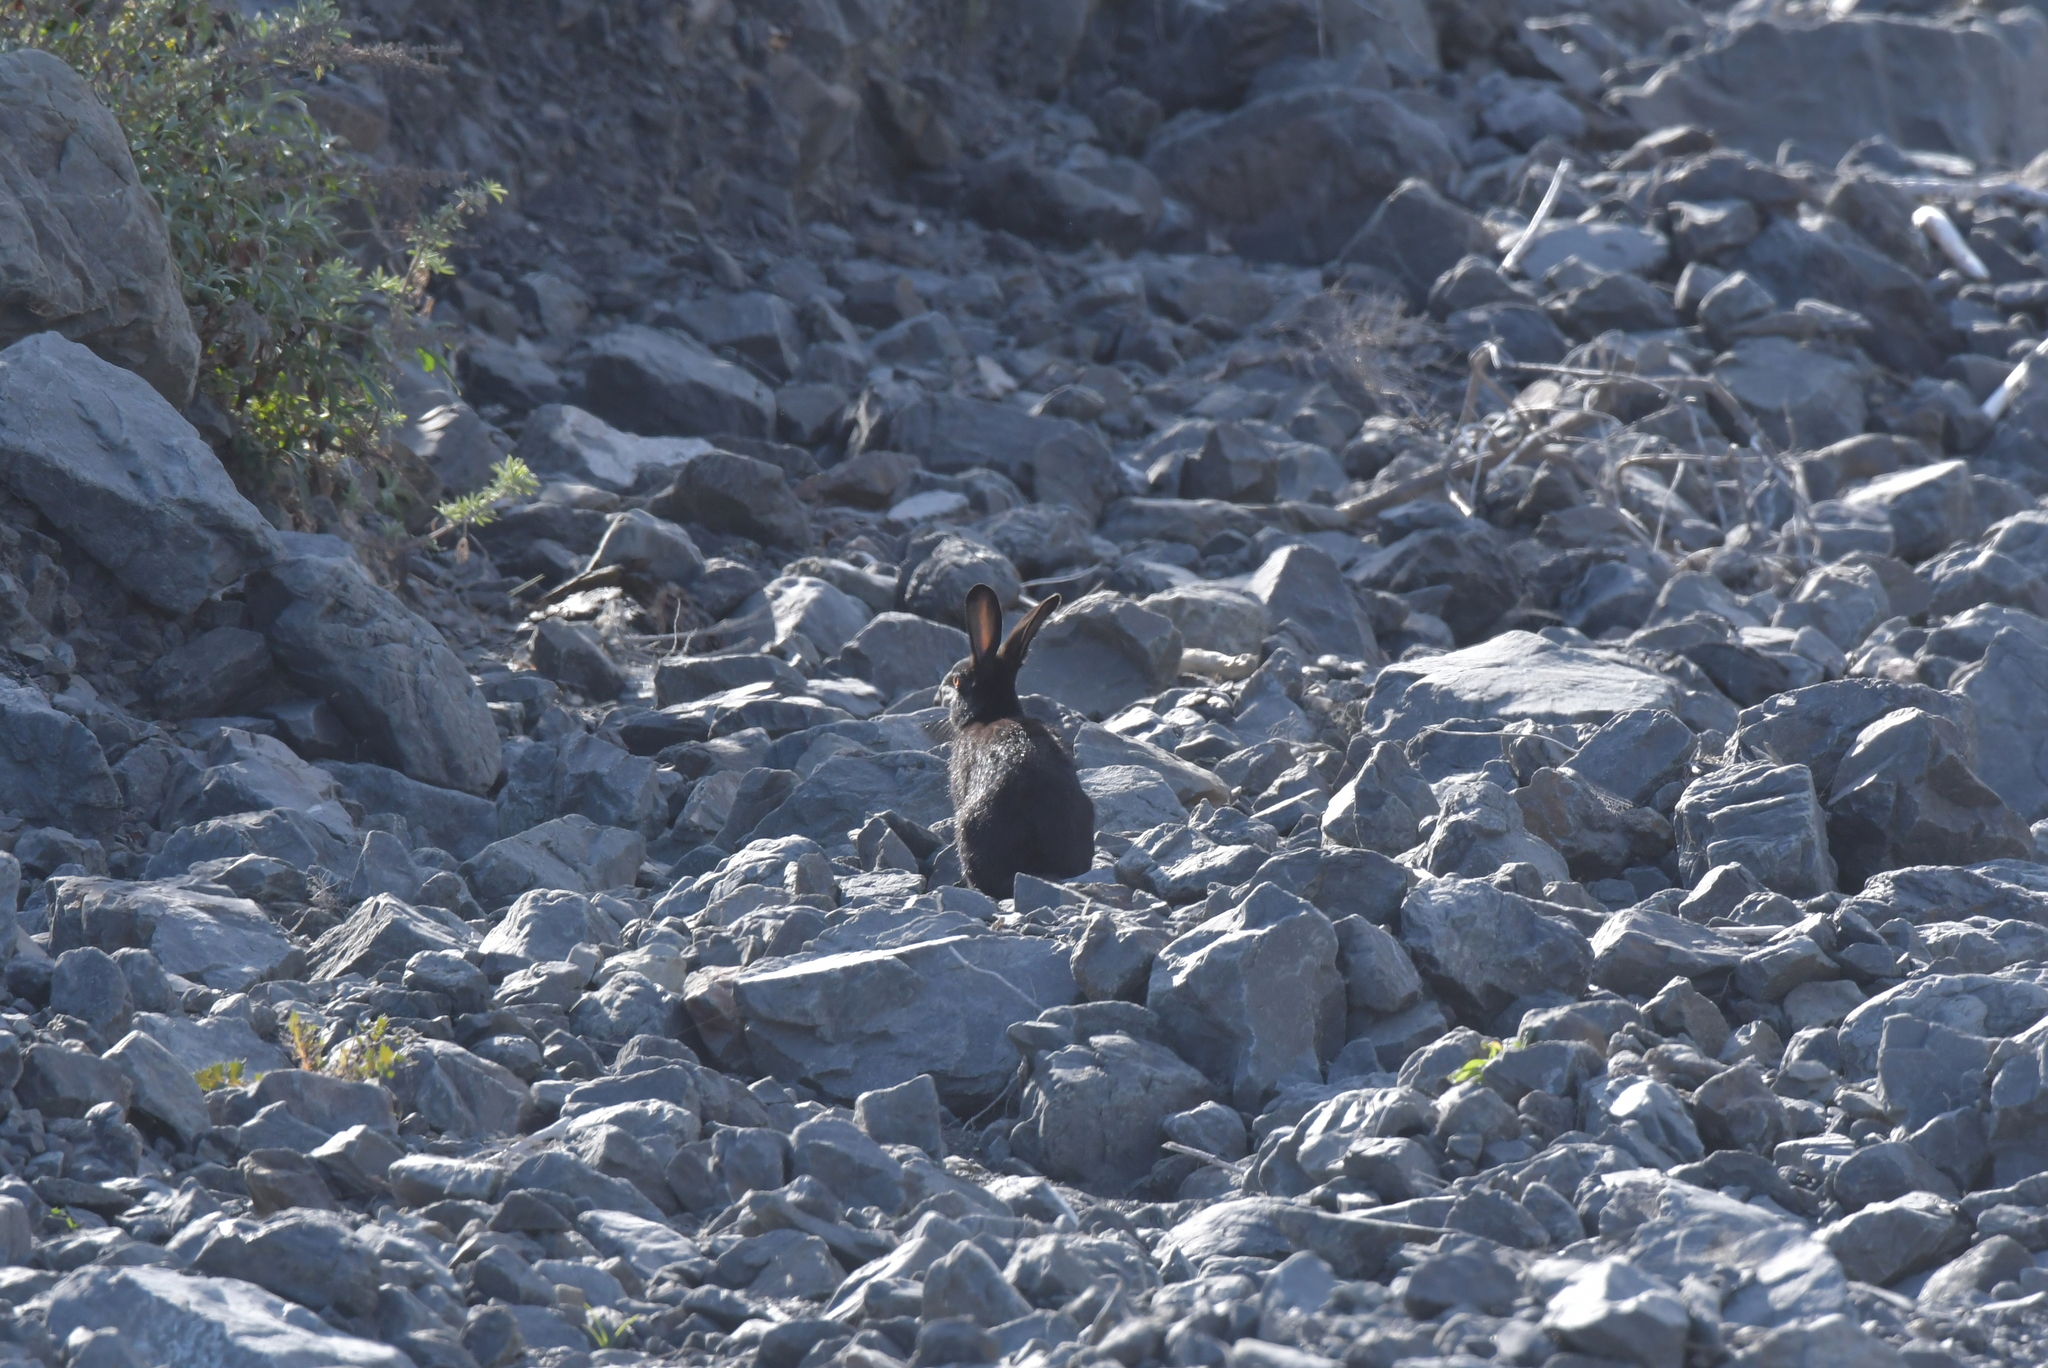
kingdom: Animalia
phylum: Chordata
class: Mammalia
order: Lagomorpha
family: Leporidae
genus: Oryctolagus
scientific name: Oryctolagus cuniculus
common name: European rabbit
